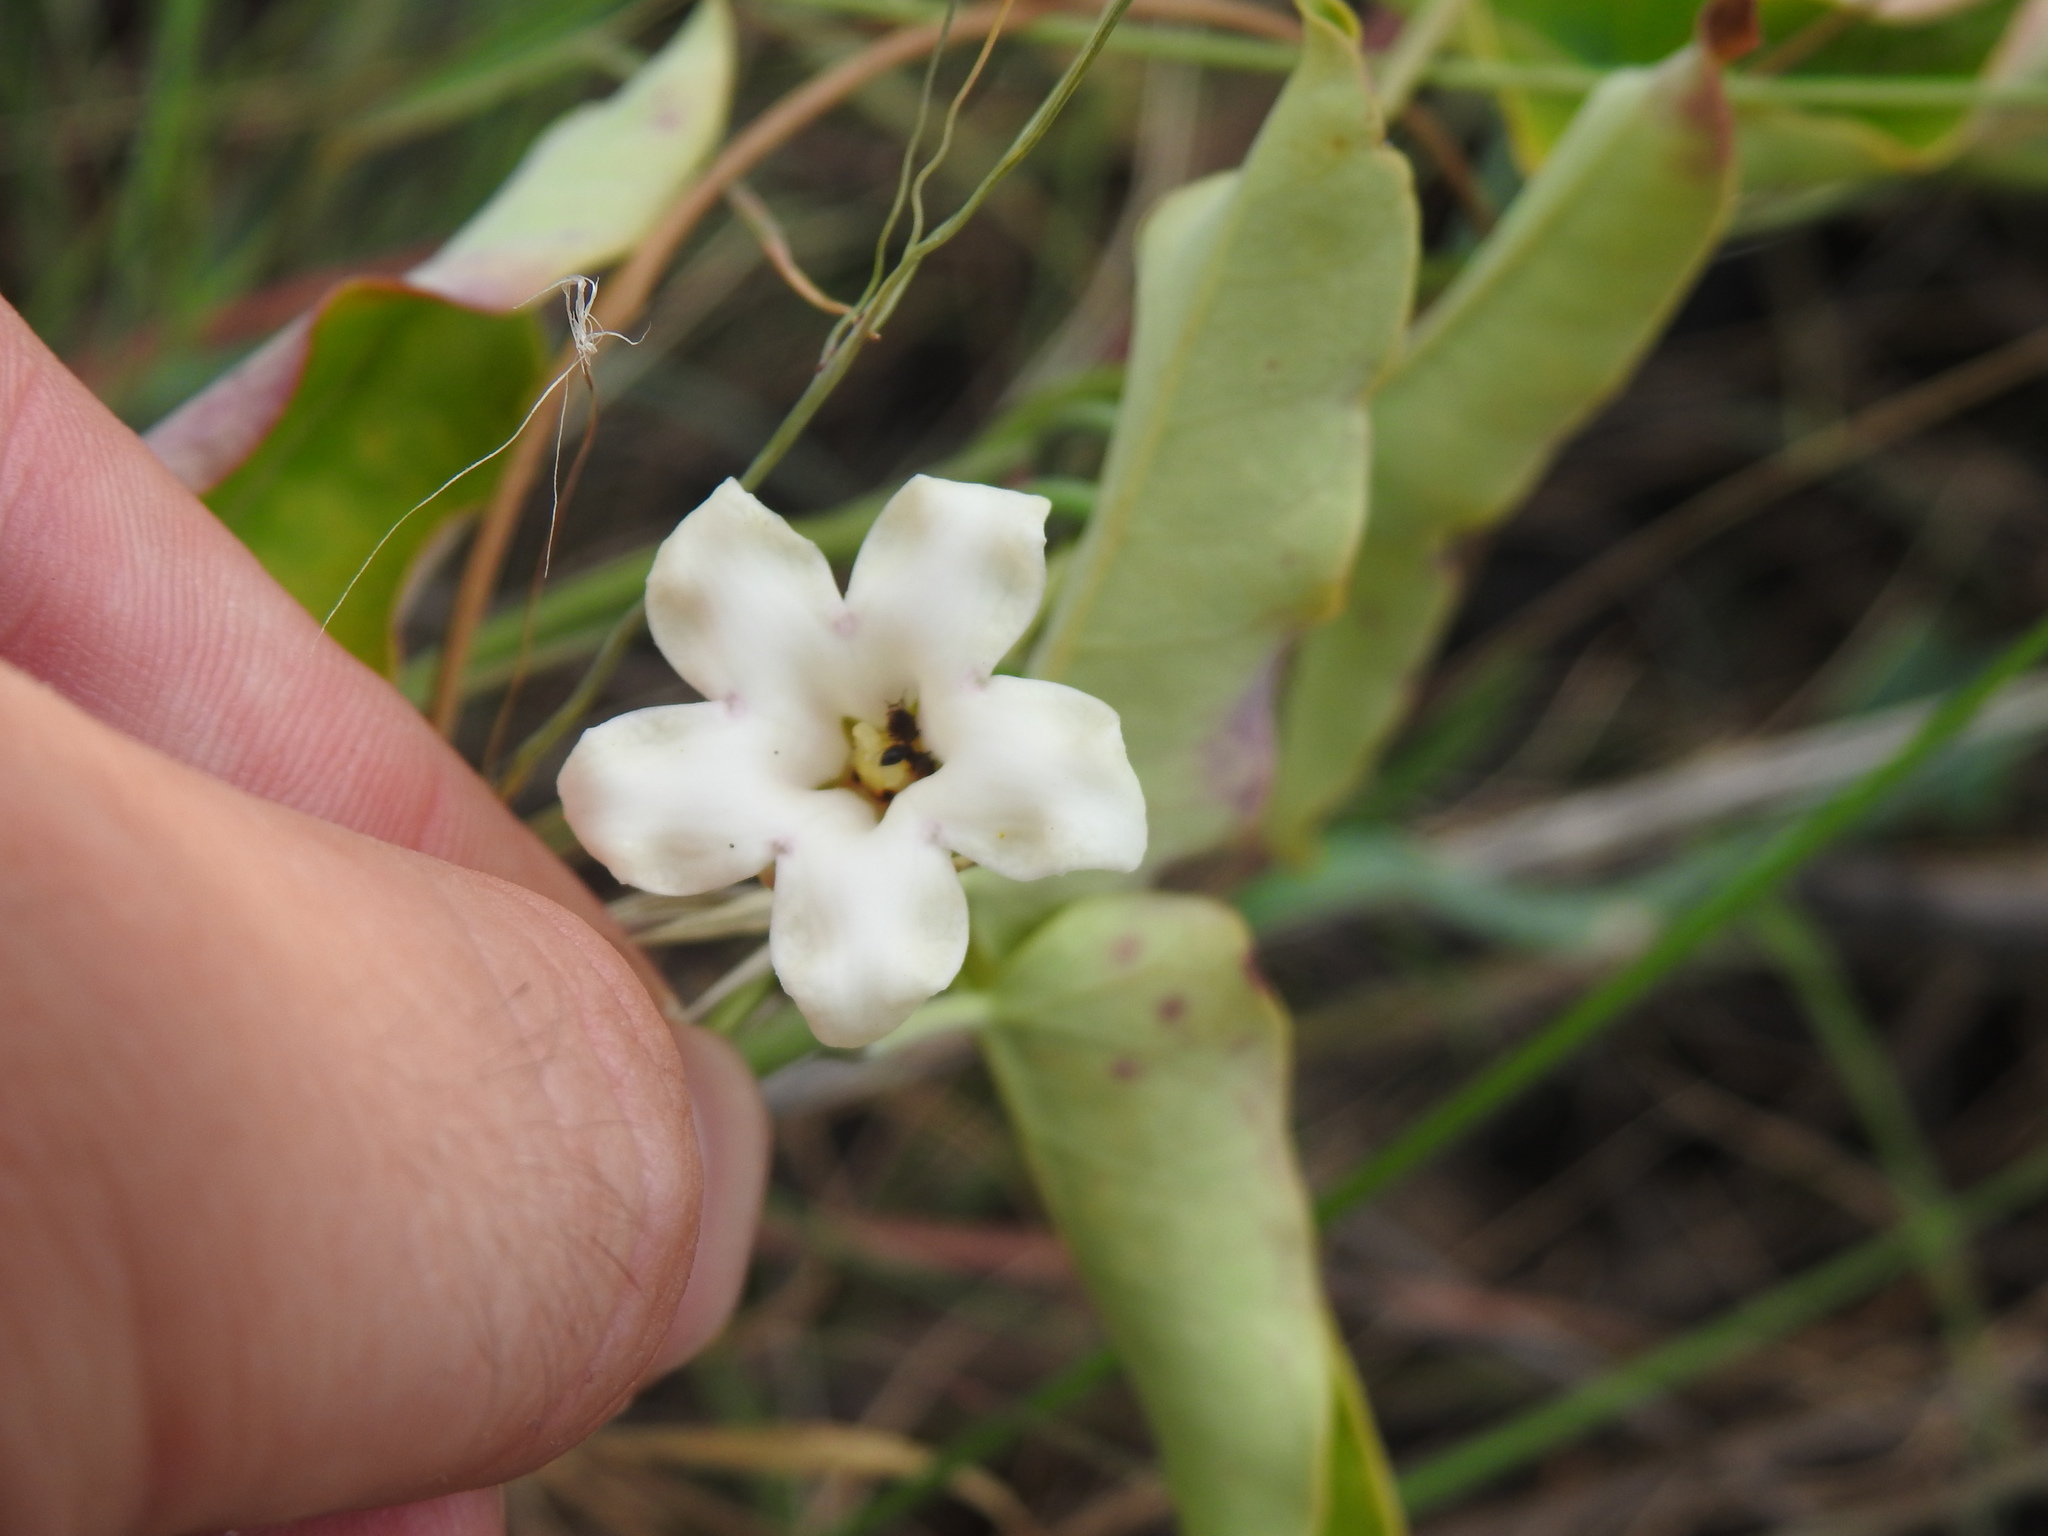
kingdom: Plantae
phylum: Tracheophyta
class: Magnoliopsida
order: Gentianales
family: Apocynaceae
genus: Araujia
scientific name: Araujia sericifera
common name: White bladderflower
